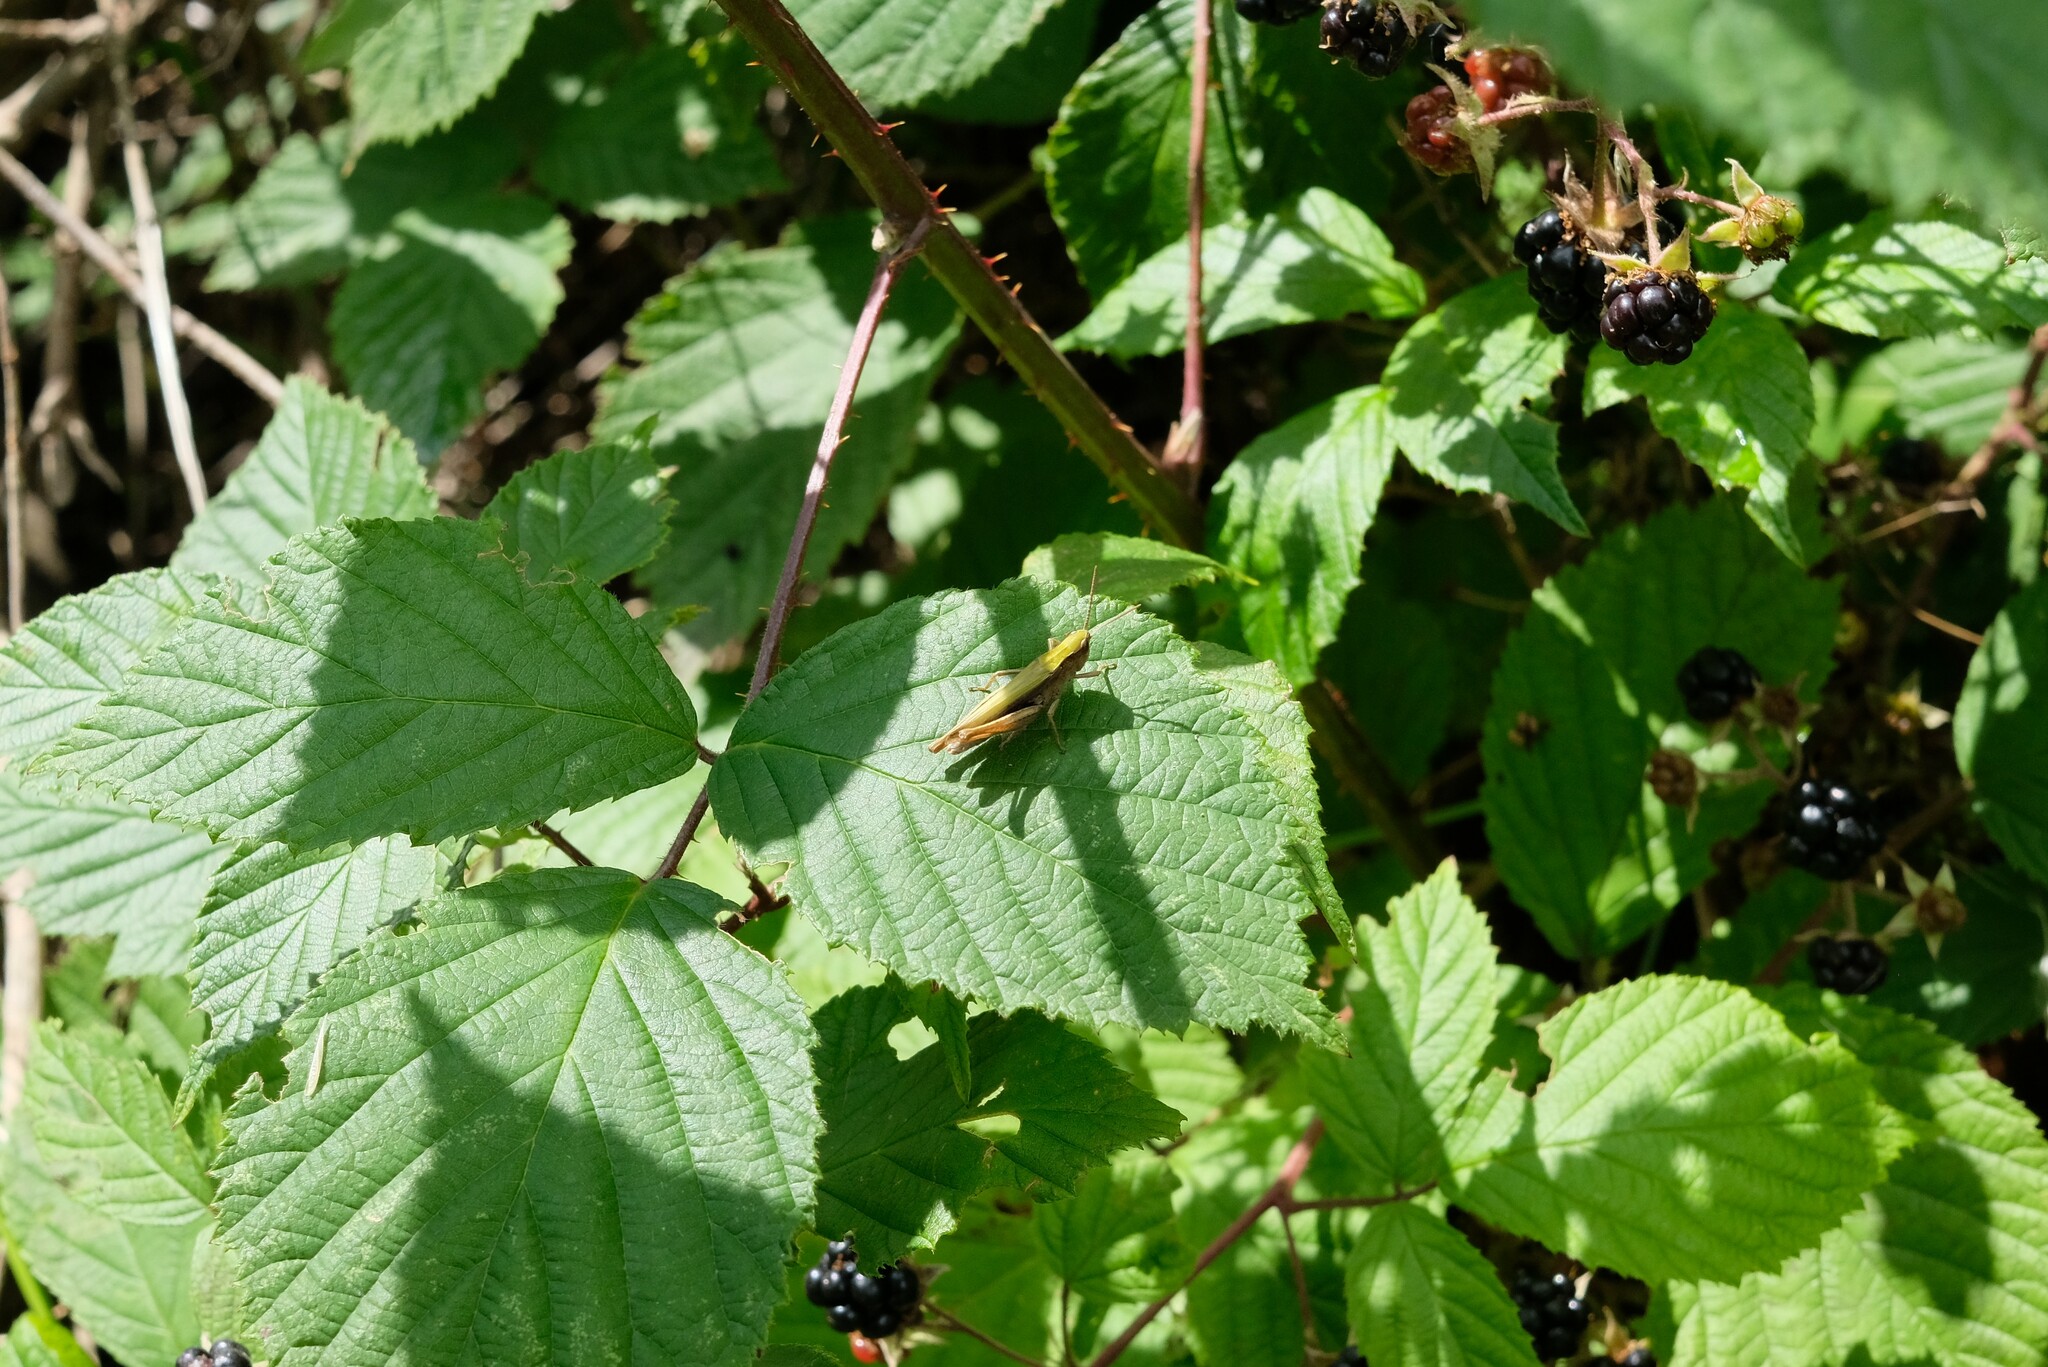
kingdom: Animalia
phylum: Arthropoda
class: Insecta
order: Orthoptera
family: Acrididae
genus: Chorthippus
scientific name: Chorthippus dorsatus
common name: Steppe grasshopper
